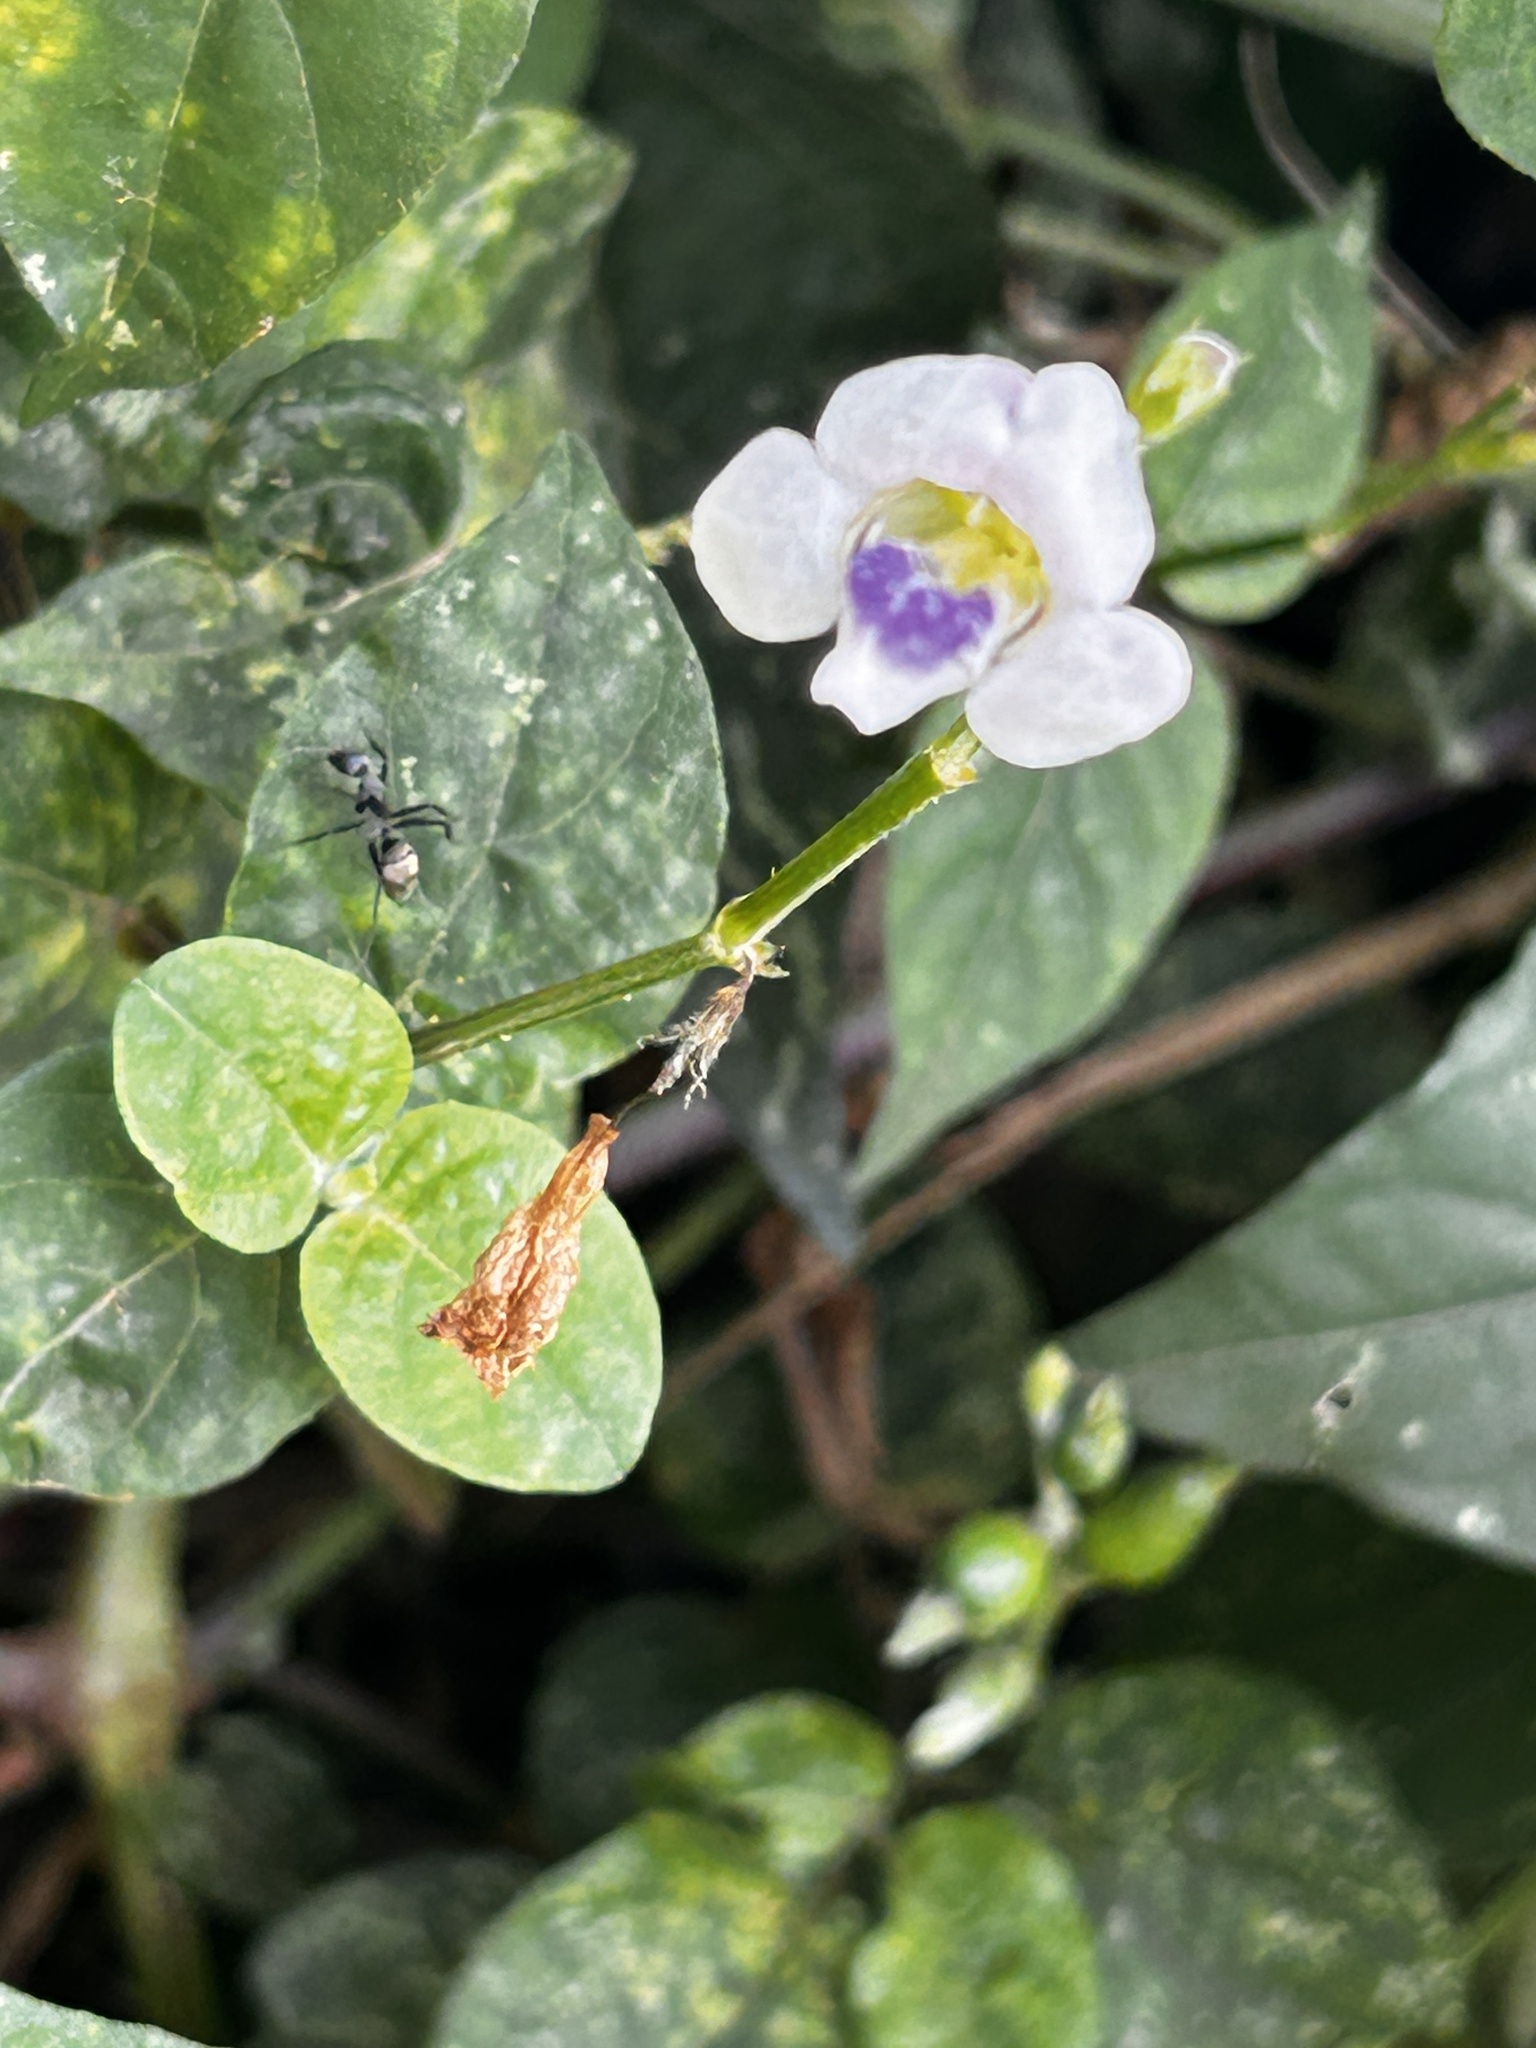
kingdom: Plantae
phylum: Tracheophyta
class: Magnoliopsida
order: Lamiales
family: Acanthaceae
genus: Asystasia
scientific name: Asystasia intrusa
